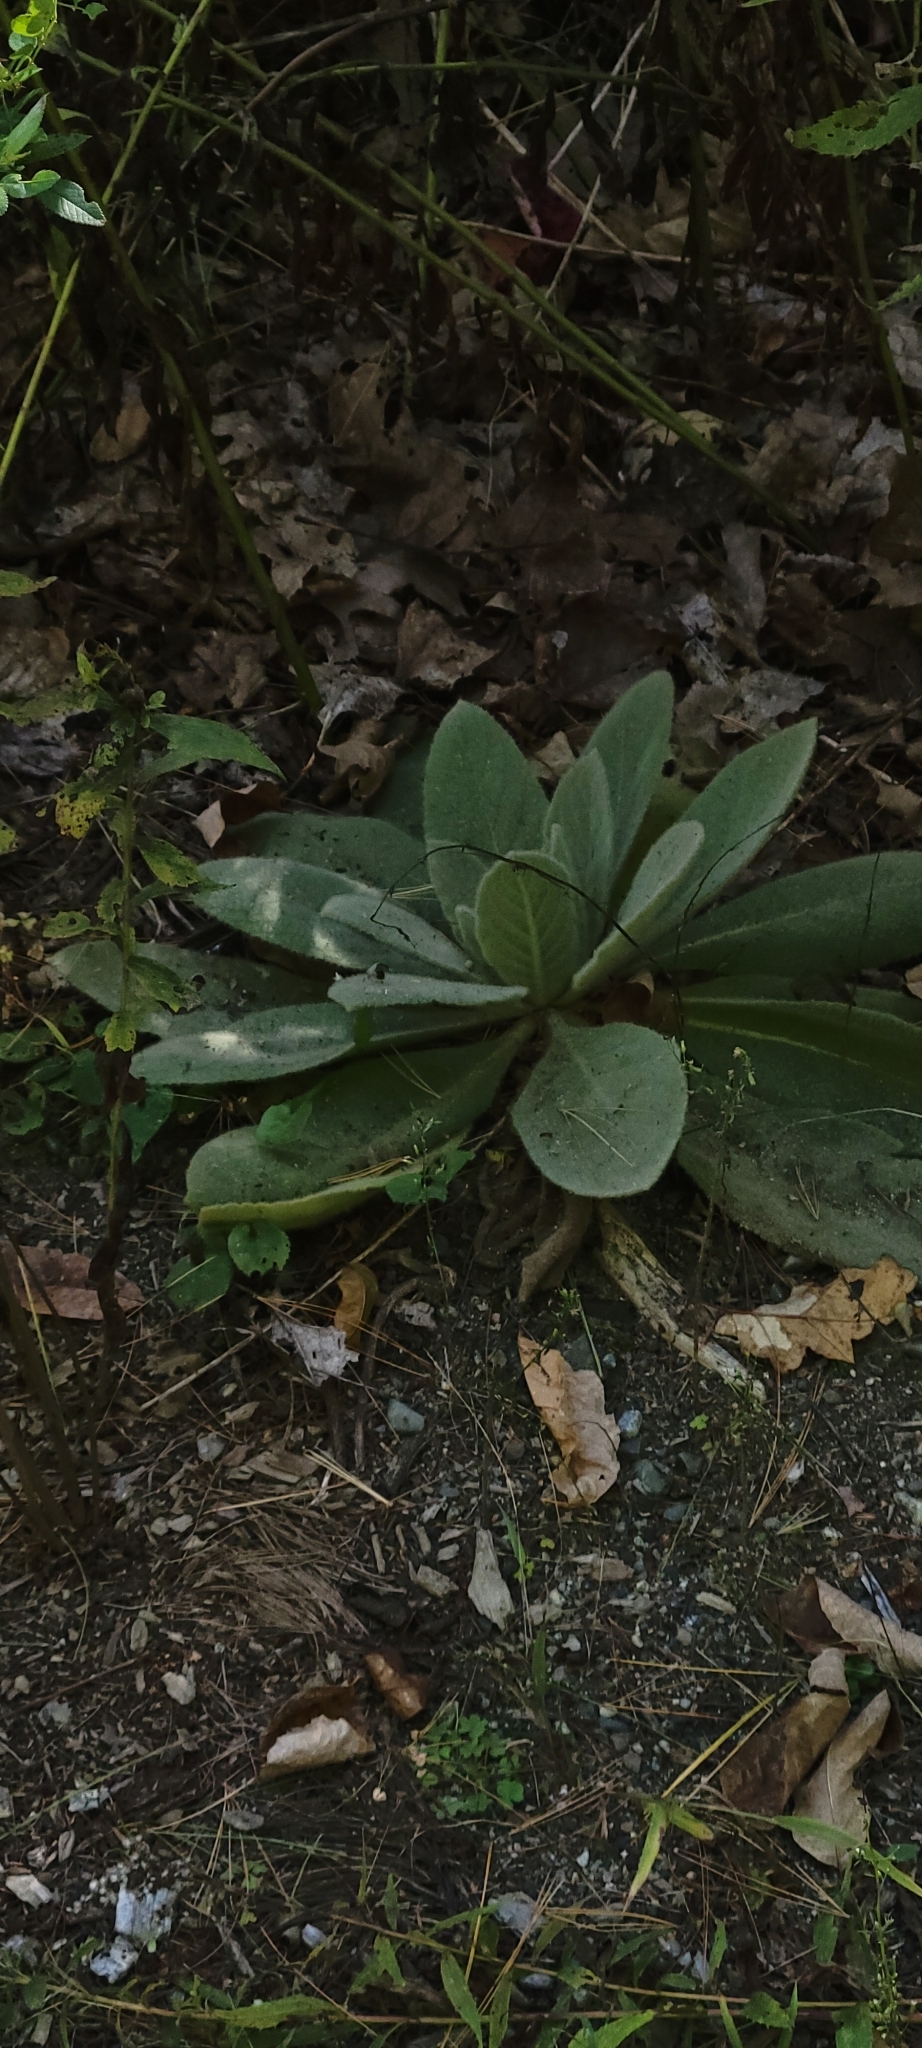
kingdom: Plantae
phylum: Tracheophyta
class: Magnoliopsida
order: Lamiales
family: Scrophulariaceae
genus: Verbascum
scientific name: Verbascum thapsus
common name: Common mullein
